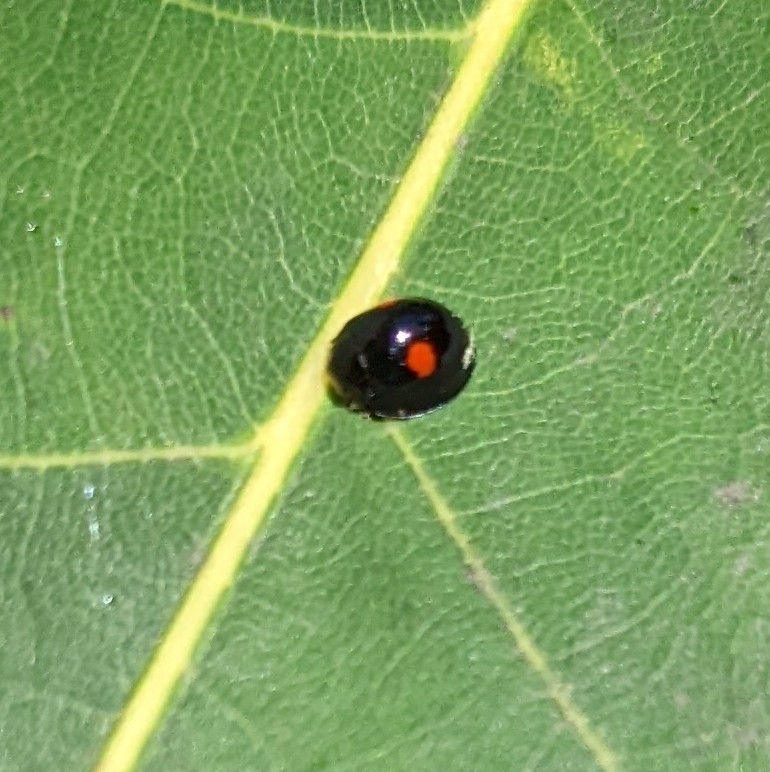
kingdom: Animalia
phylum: Arthropoda
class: Insecta
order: Coleoptera
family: Coccinellidae
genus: Chilocorus
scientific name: Chilocorus stigma
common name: Twicestabbed lady beetle
